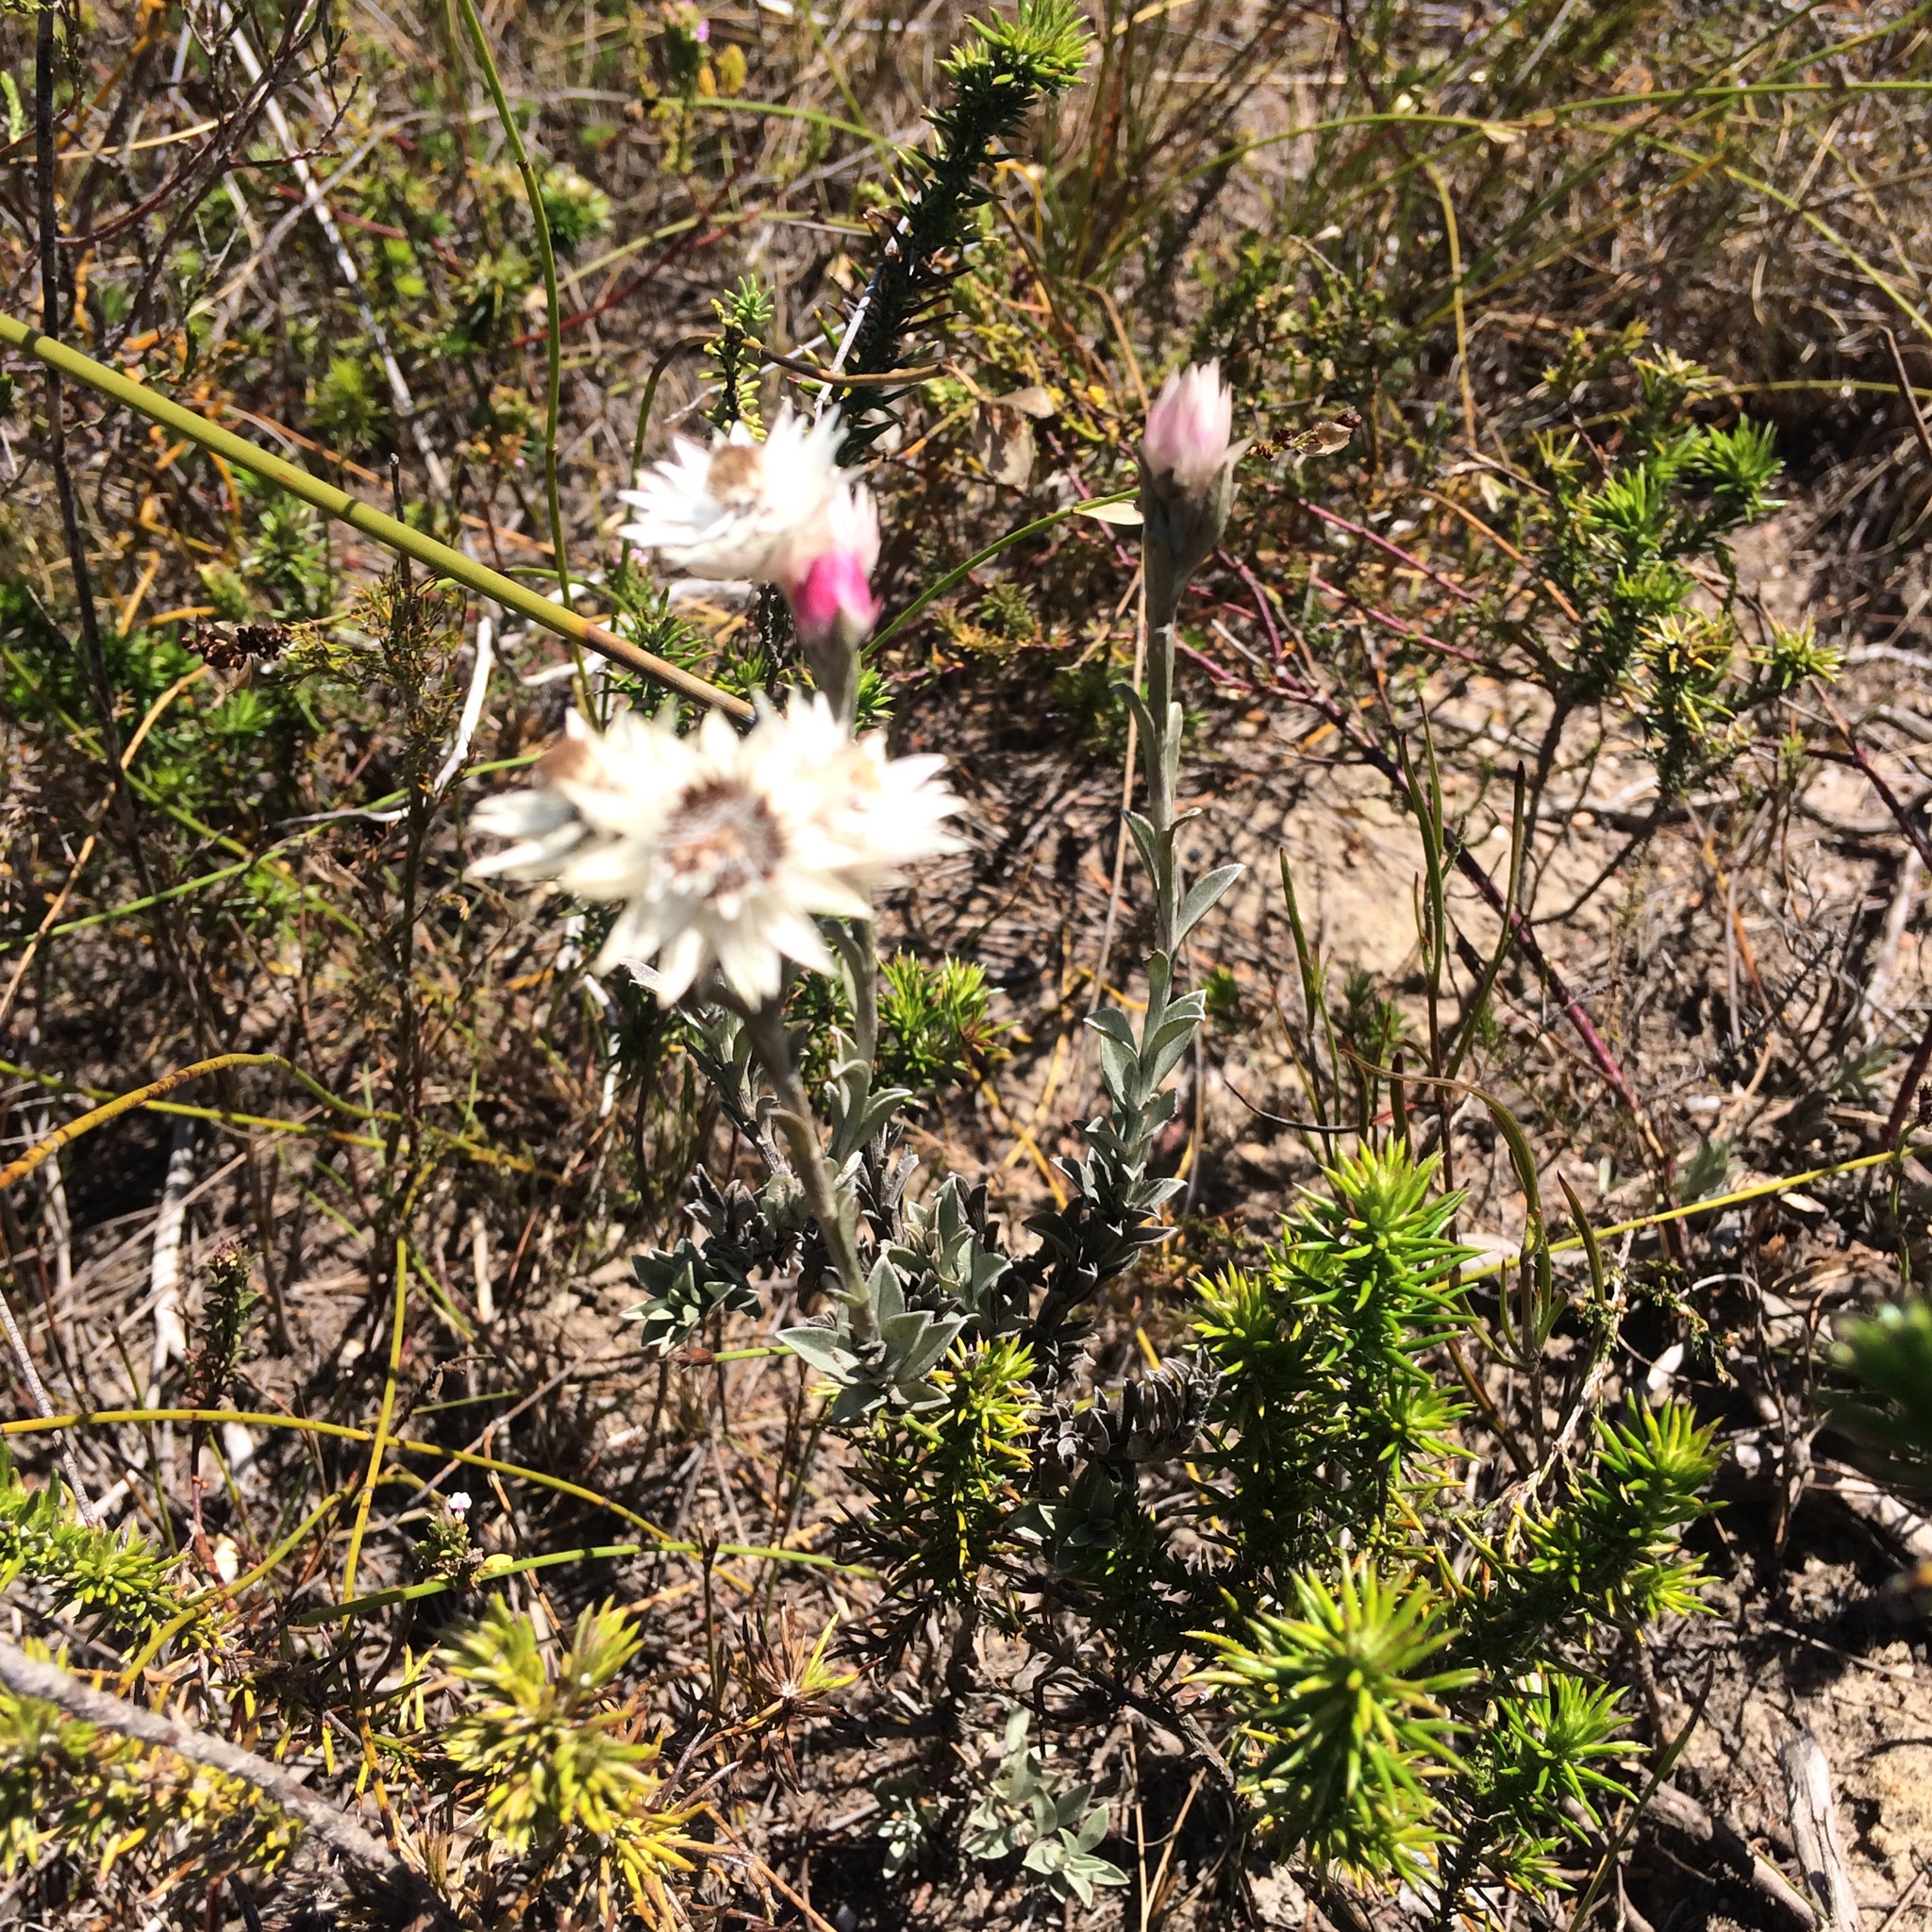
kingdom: Plantae
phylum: Tracheophyta
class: Magnoliopsida
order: Asterales
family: Asteraceae
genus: Achyranthemum
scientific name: Achyranthemum affine
